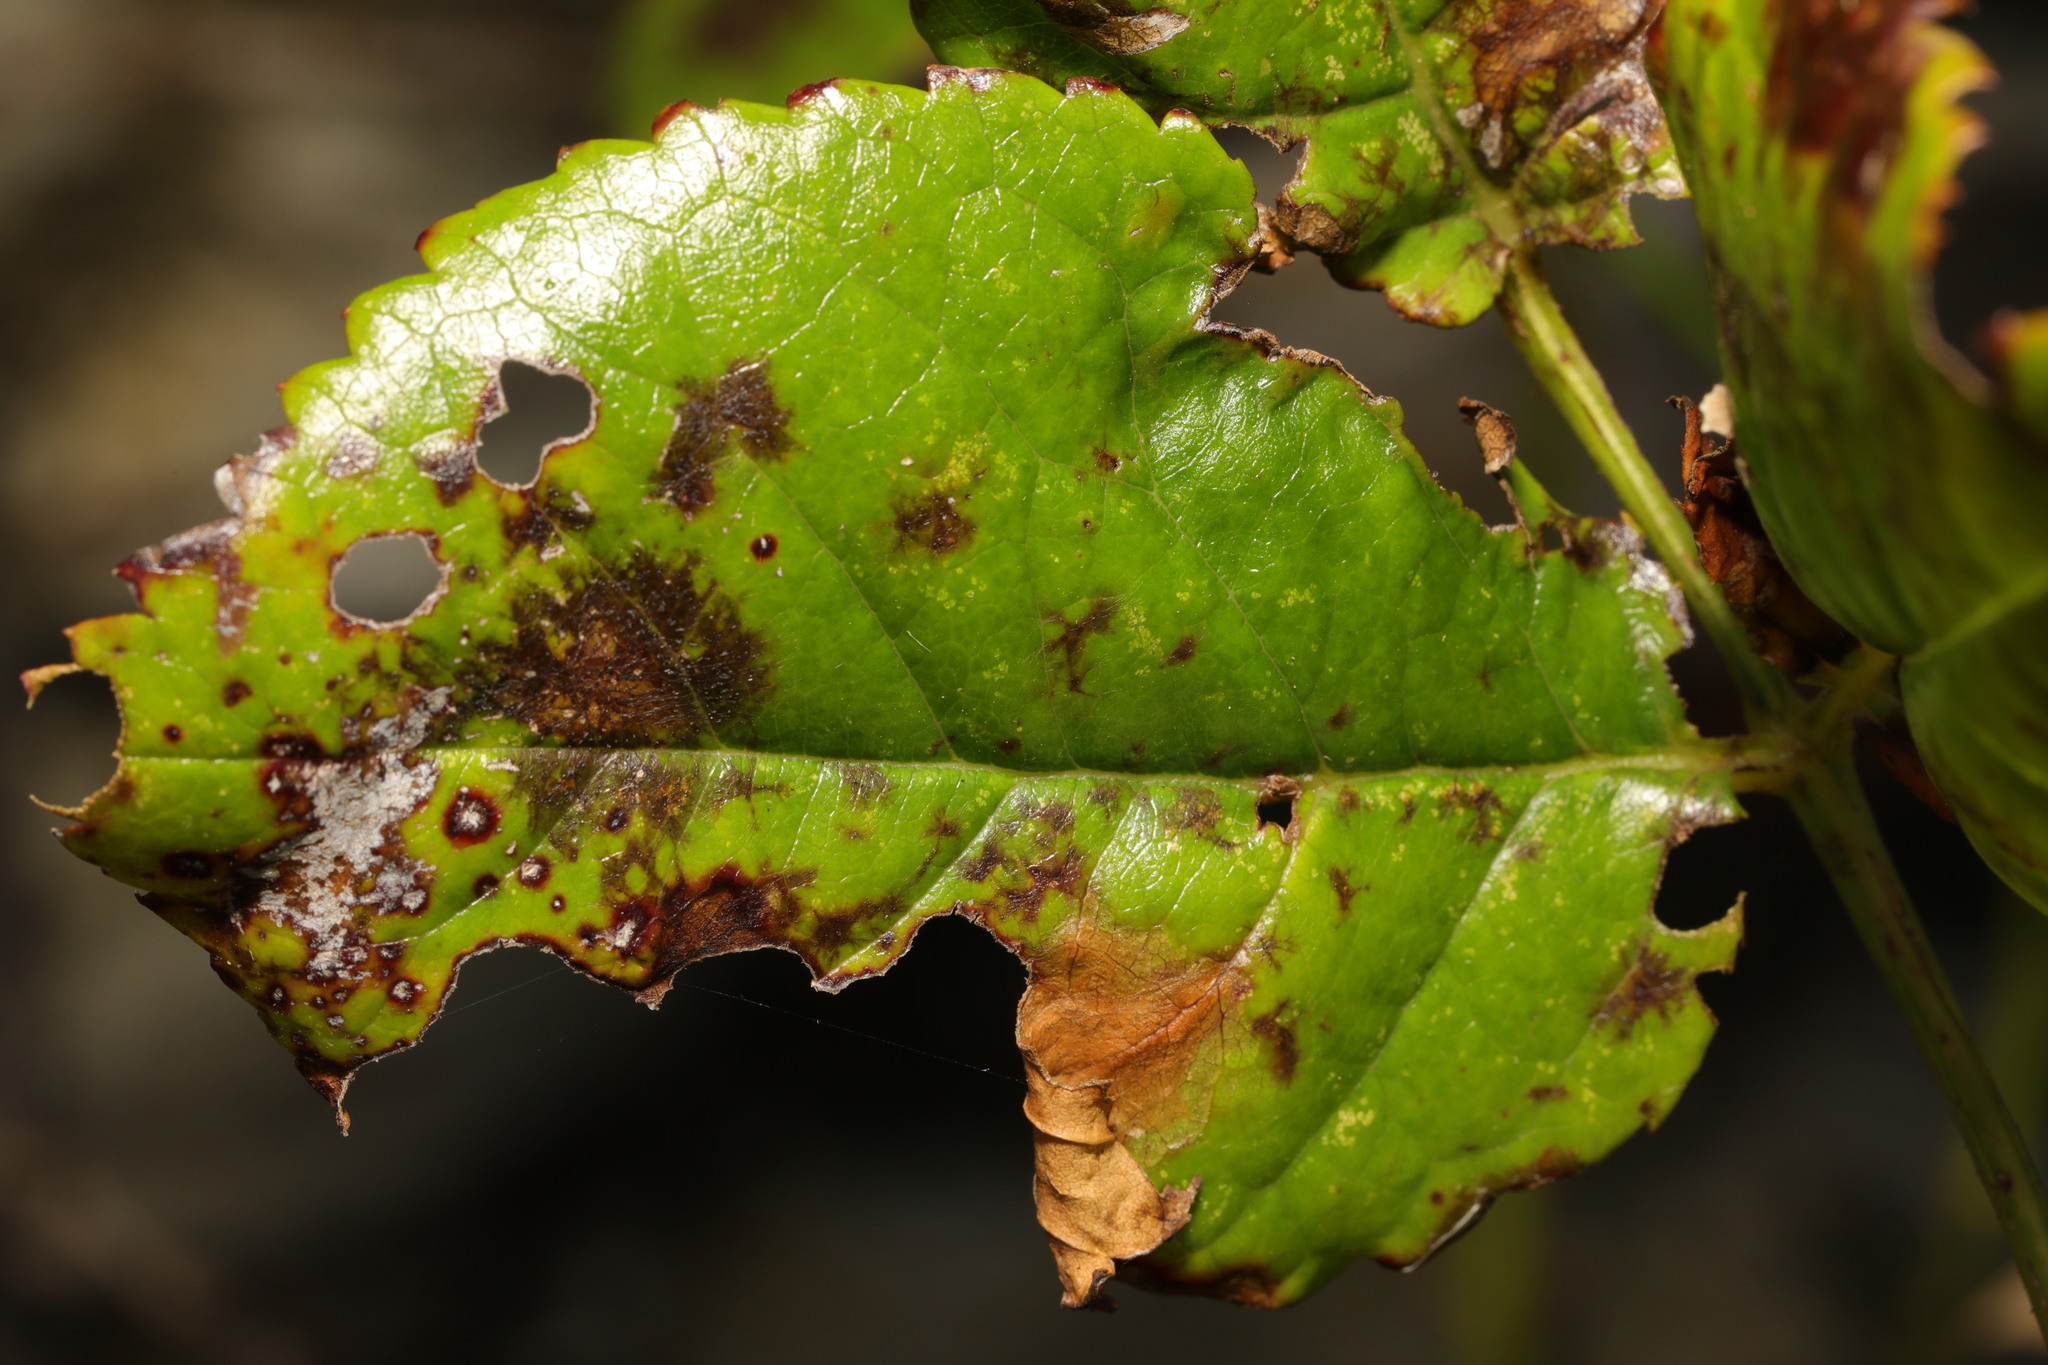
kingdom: Fungi
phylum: Ascomycota
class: Leotiomycetes
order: Helotiales
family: Drepanopezizaceae
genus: Diplocarpon
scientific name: Diplocarpon rosae
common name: Rose black-spot
